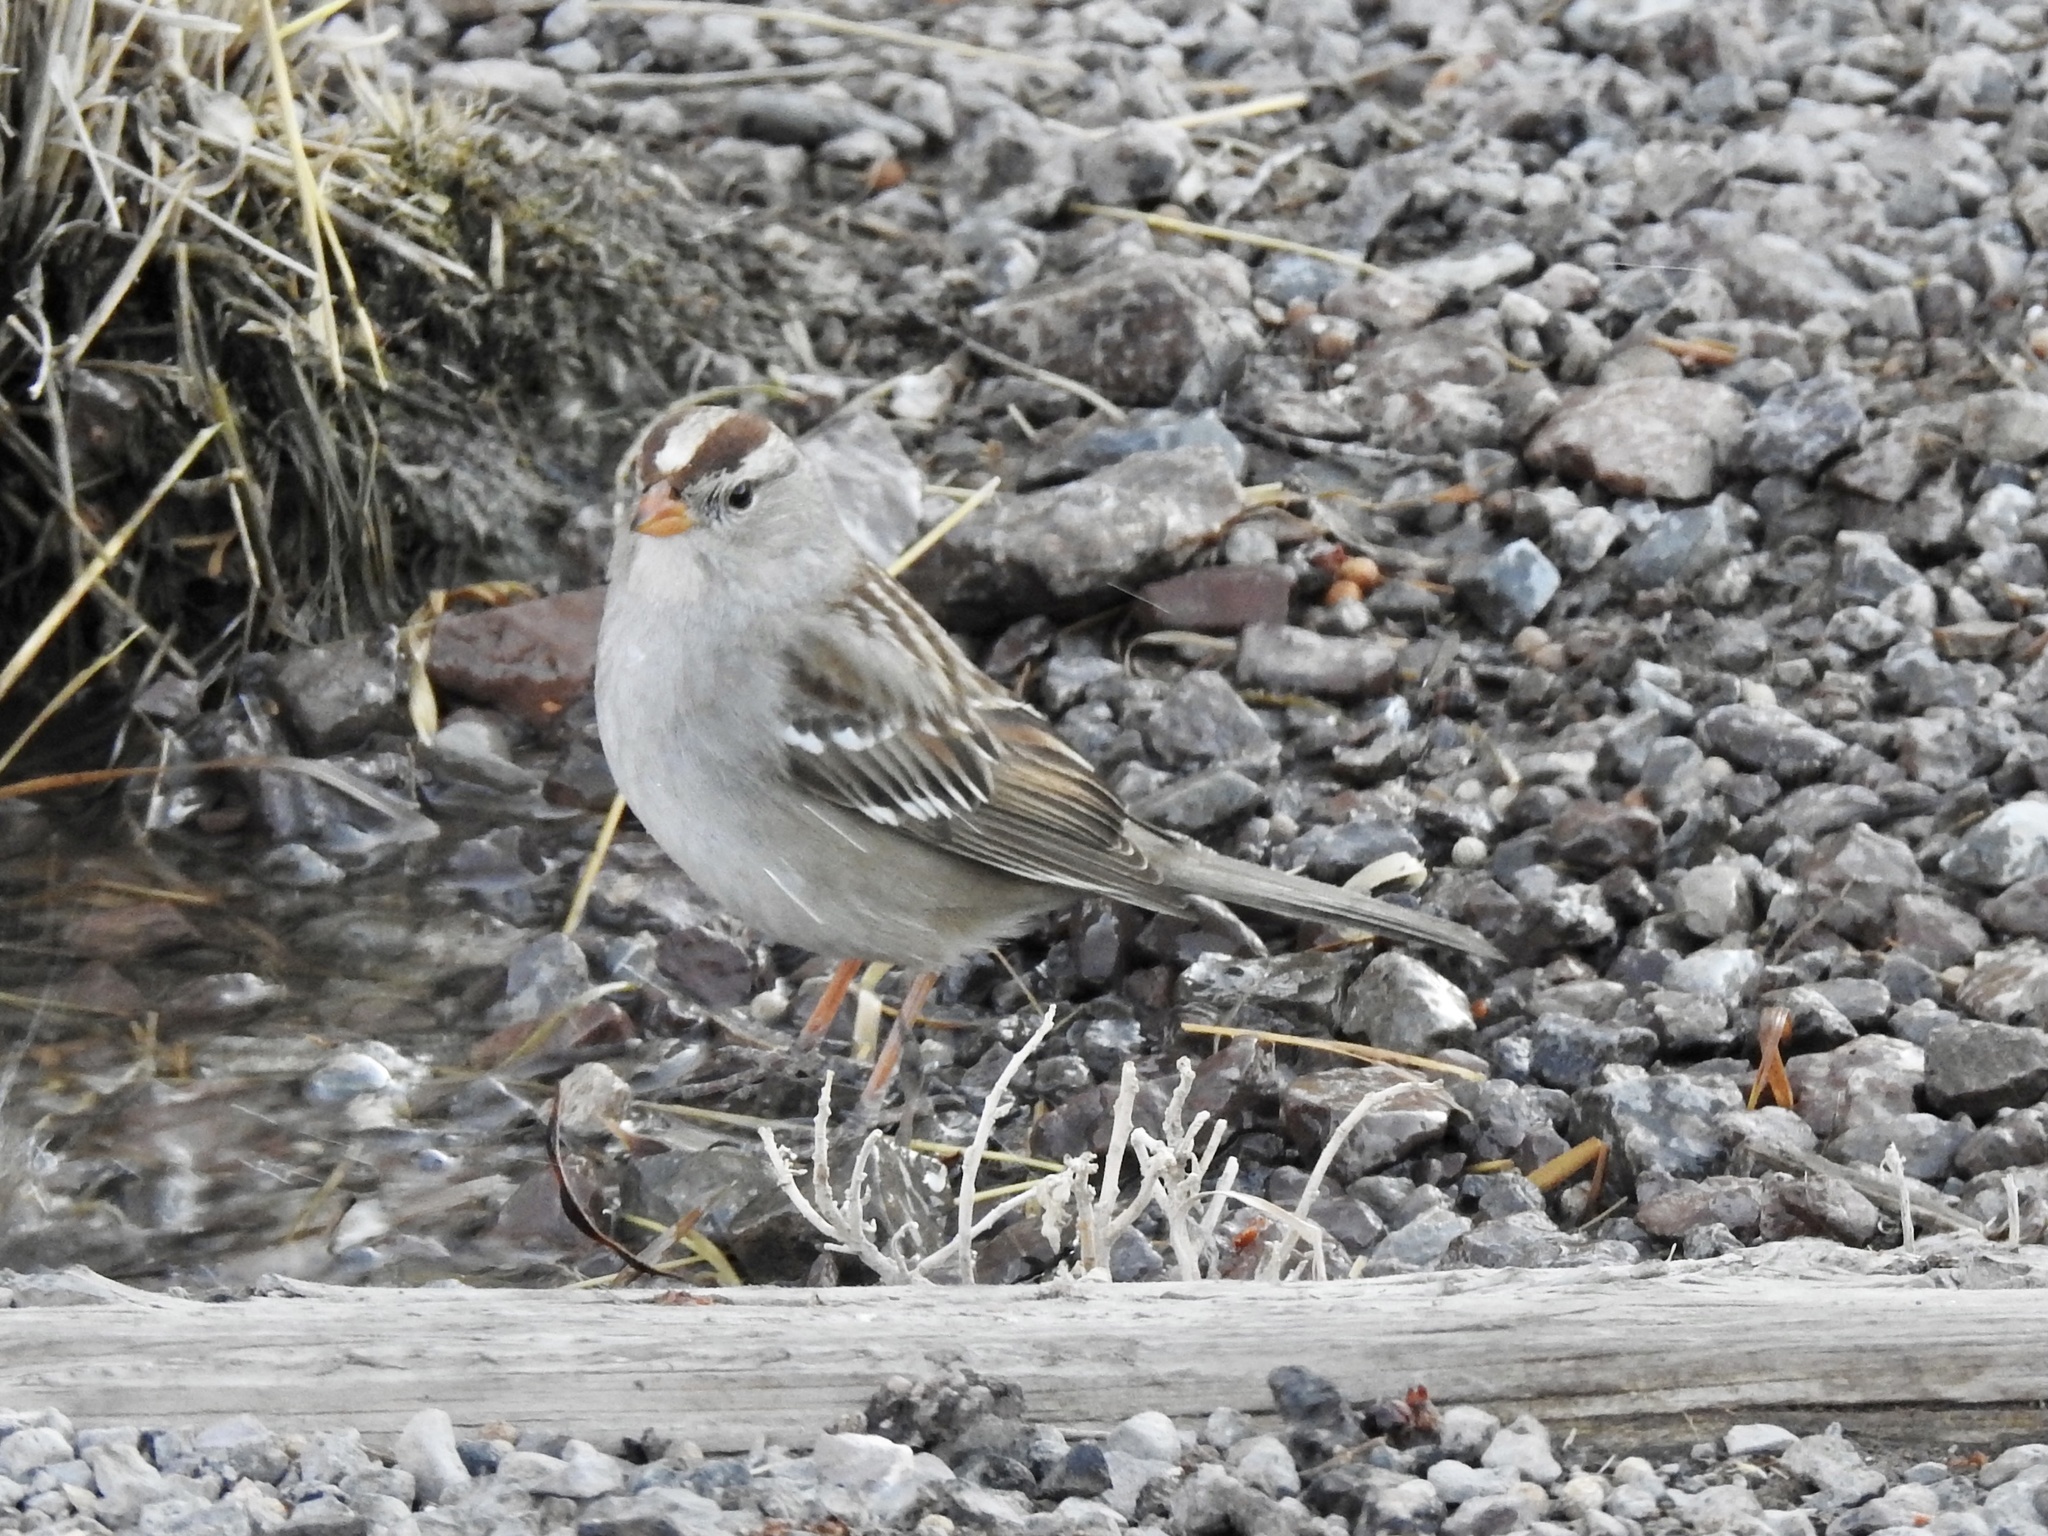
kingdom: Animalia
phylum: Chordata
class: Aves
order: Passeriformes
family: Passerellidae
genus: Zonotrichia
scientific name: Zonotrichia leucophrys
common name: White-crowned sparrow
